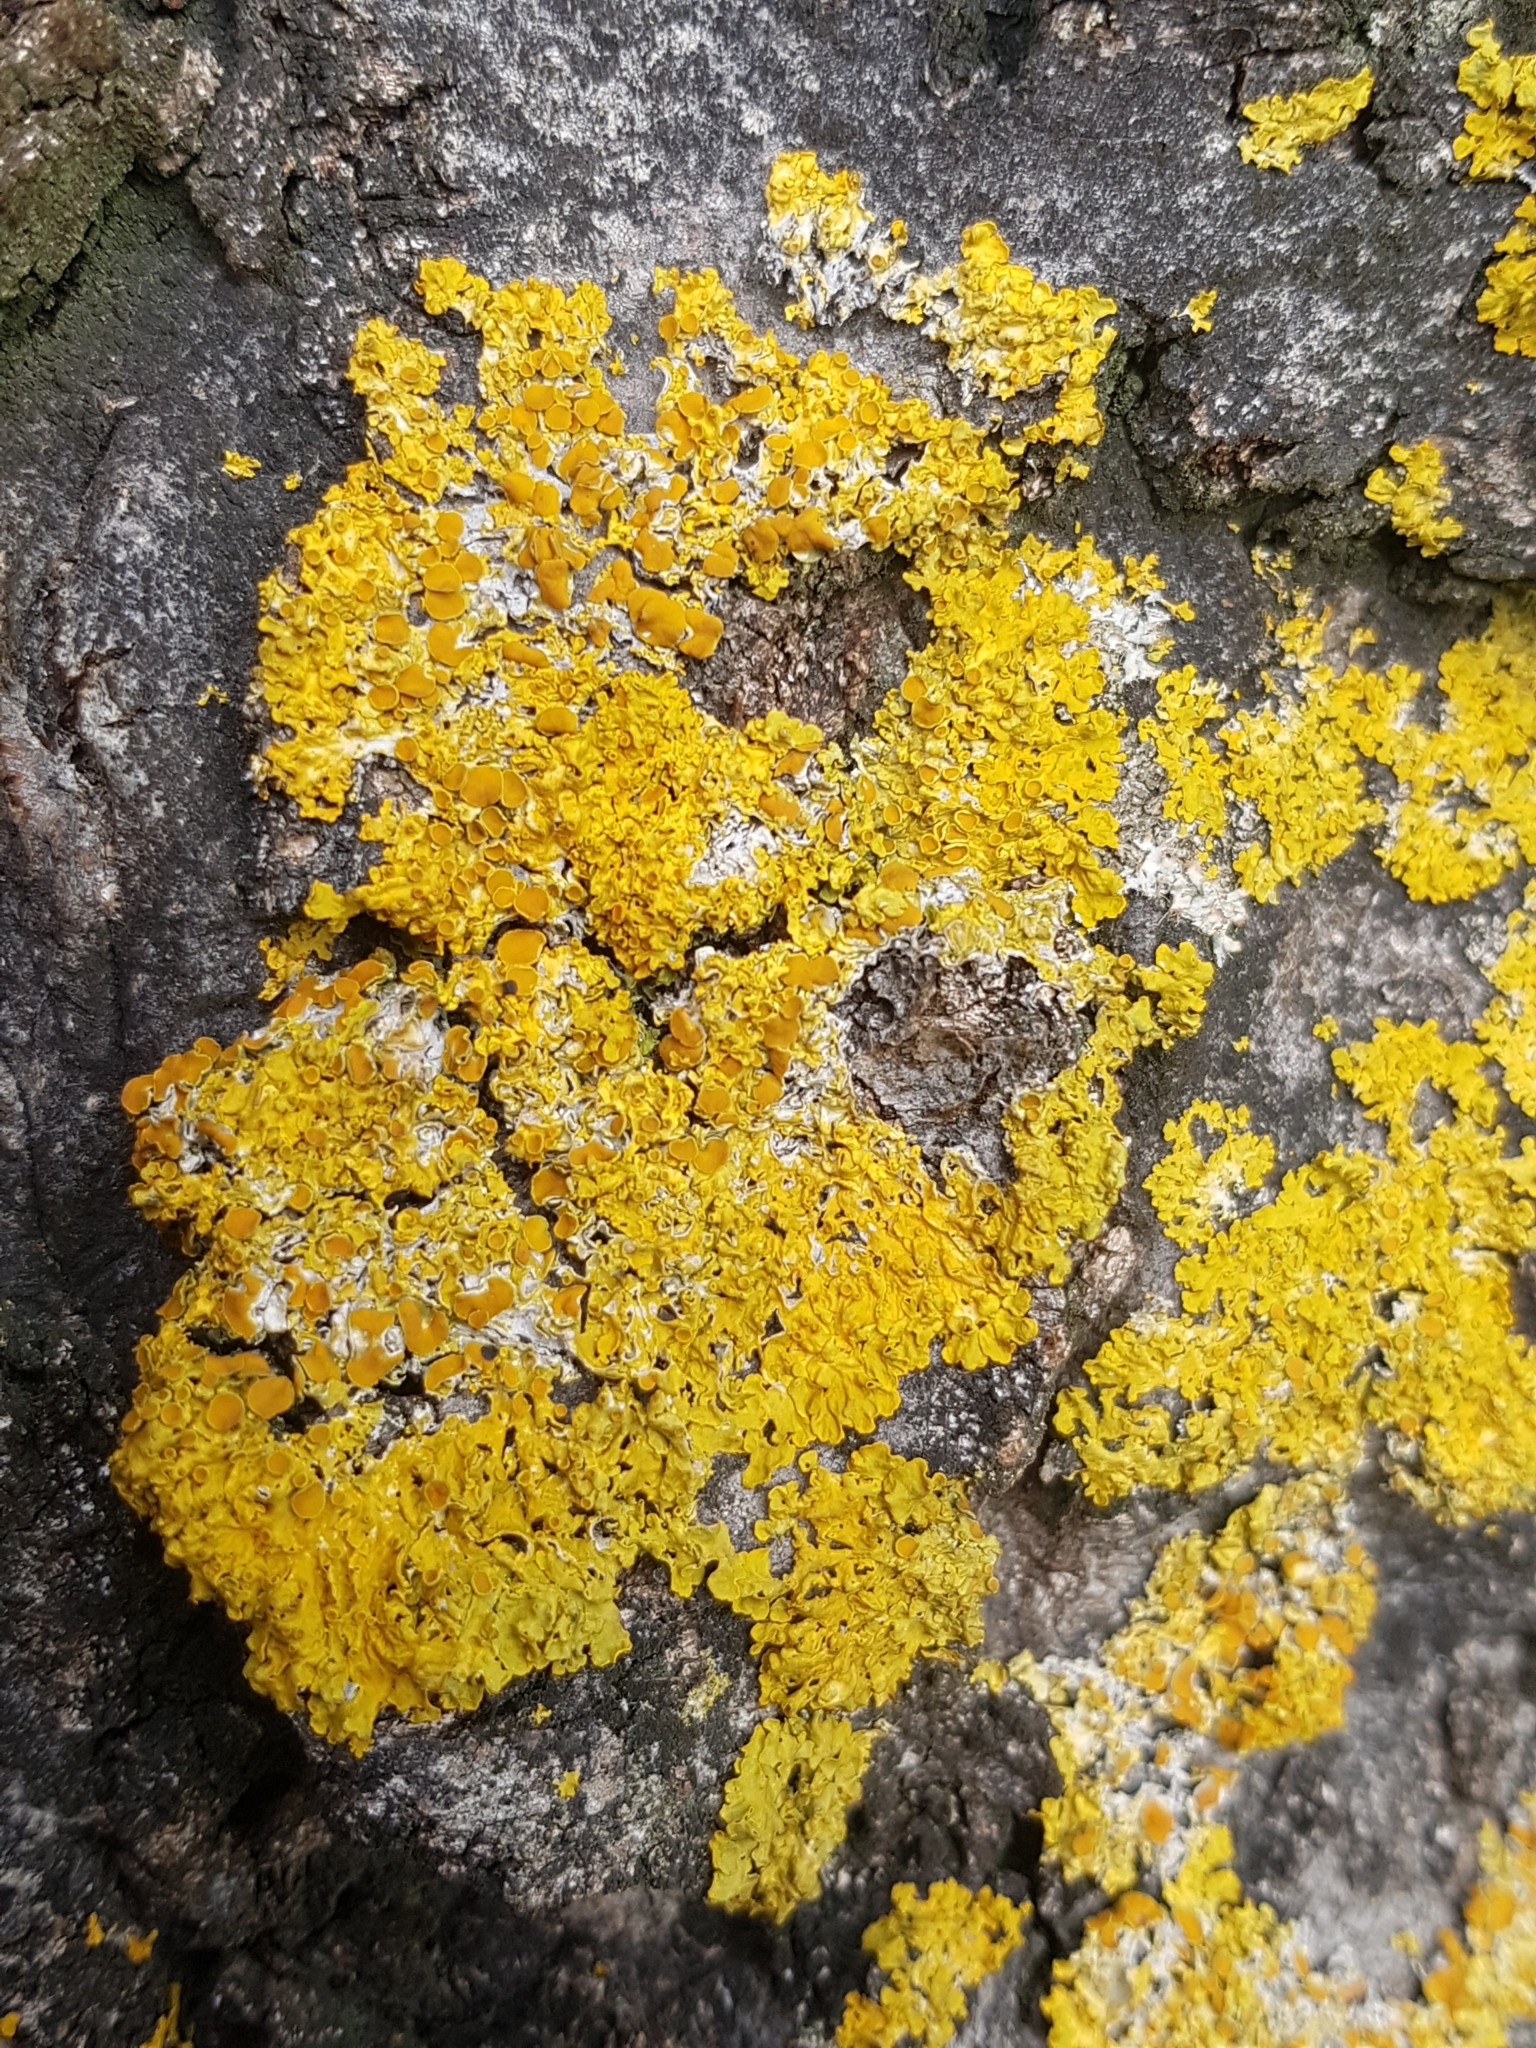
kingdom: Fungi
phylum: Ascomycota
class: Lecanoromycetes
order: Teloschistales
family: Teloschistaceae
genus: Xanthoria
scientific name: Xanthoria parietina
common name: Common orange lichen
